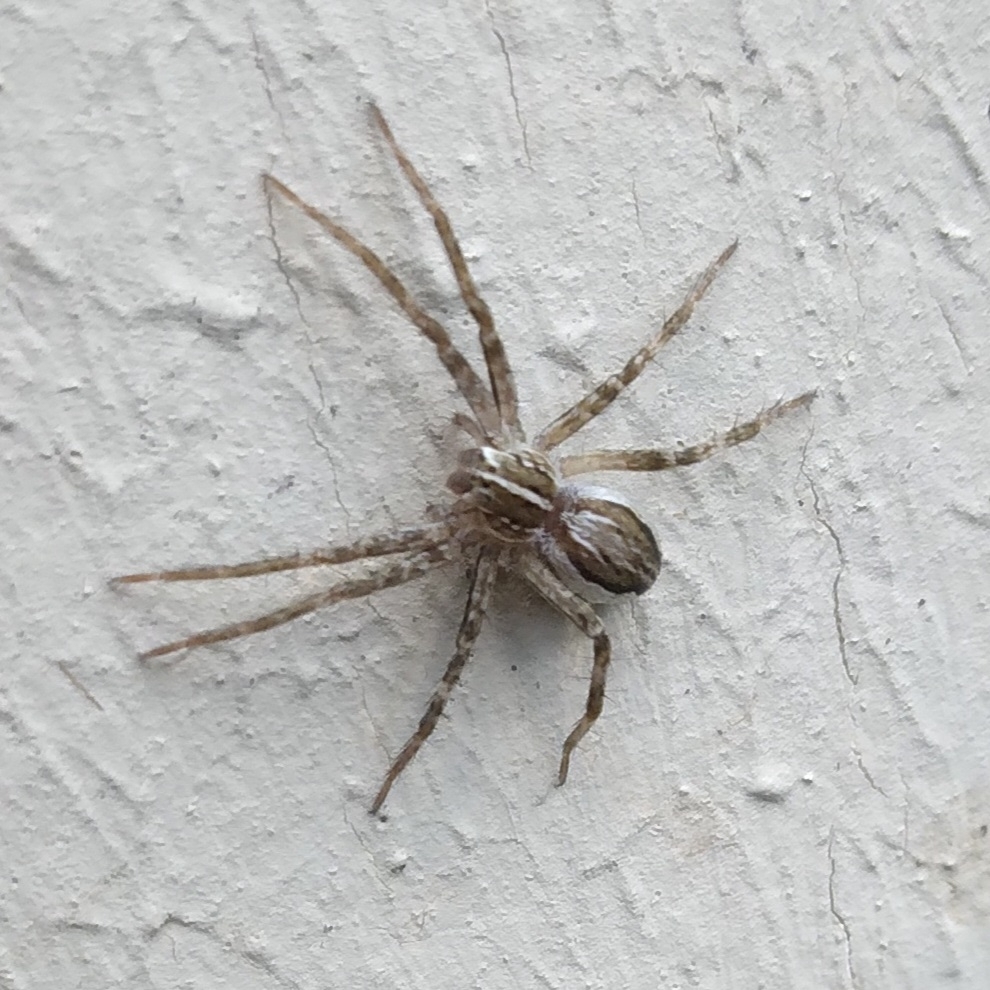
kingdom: Animalia
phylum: Arthropoda
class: Arachnida
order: Araneae
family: Pisauridae
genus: Pisaura
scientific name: Pisaura mirabilis
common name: Tent spider
